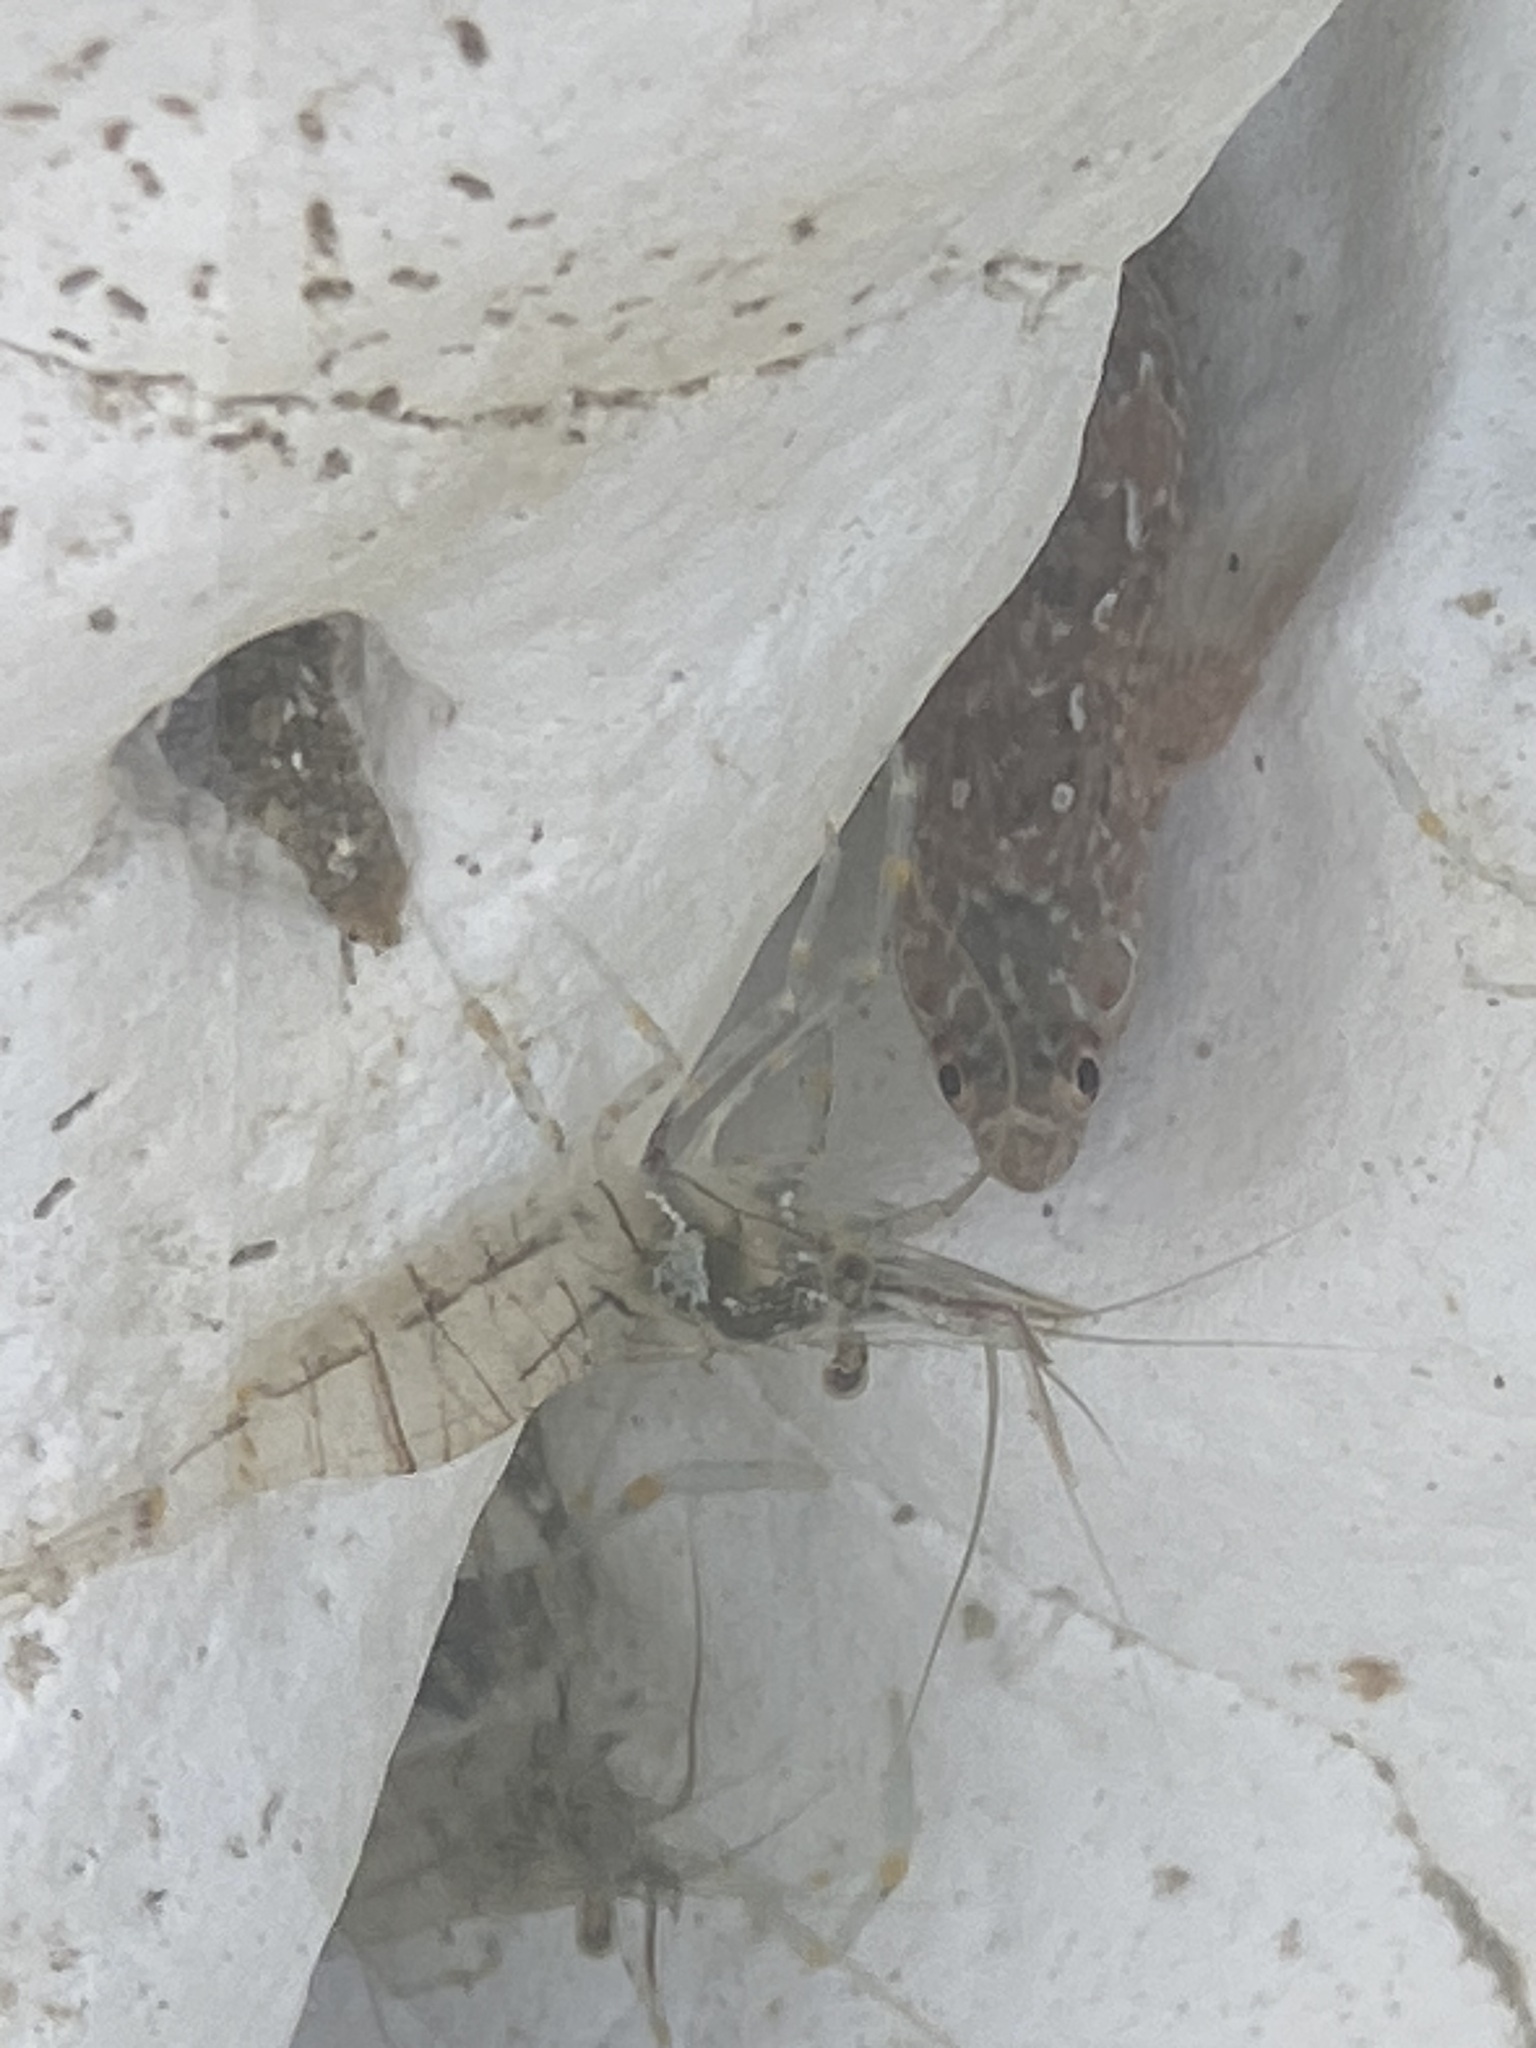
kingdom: Animalia
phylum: Chordata
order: Perciformes
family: Blenniidae
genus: Lipophrys
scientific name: Lipophrys pholis
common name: Shanny
